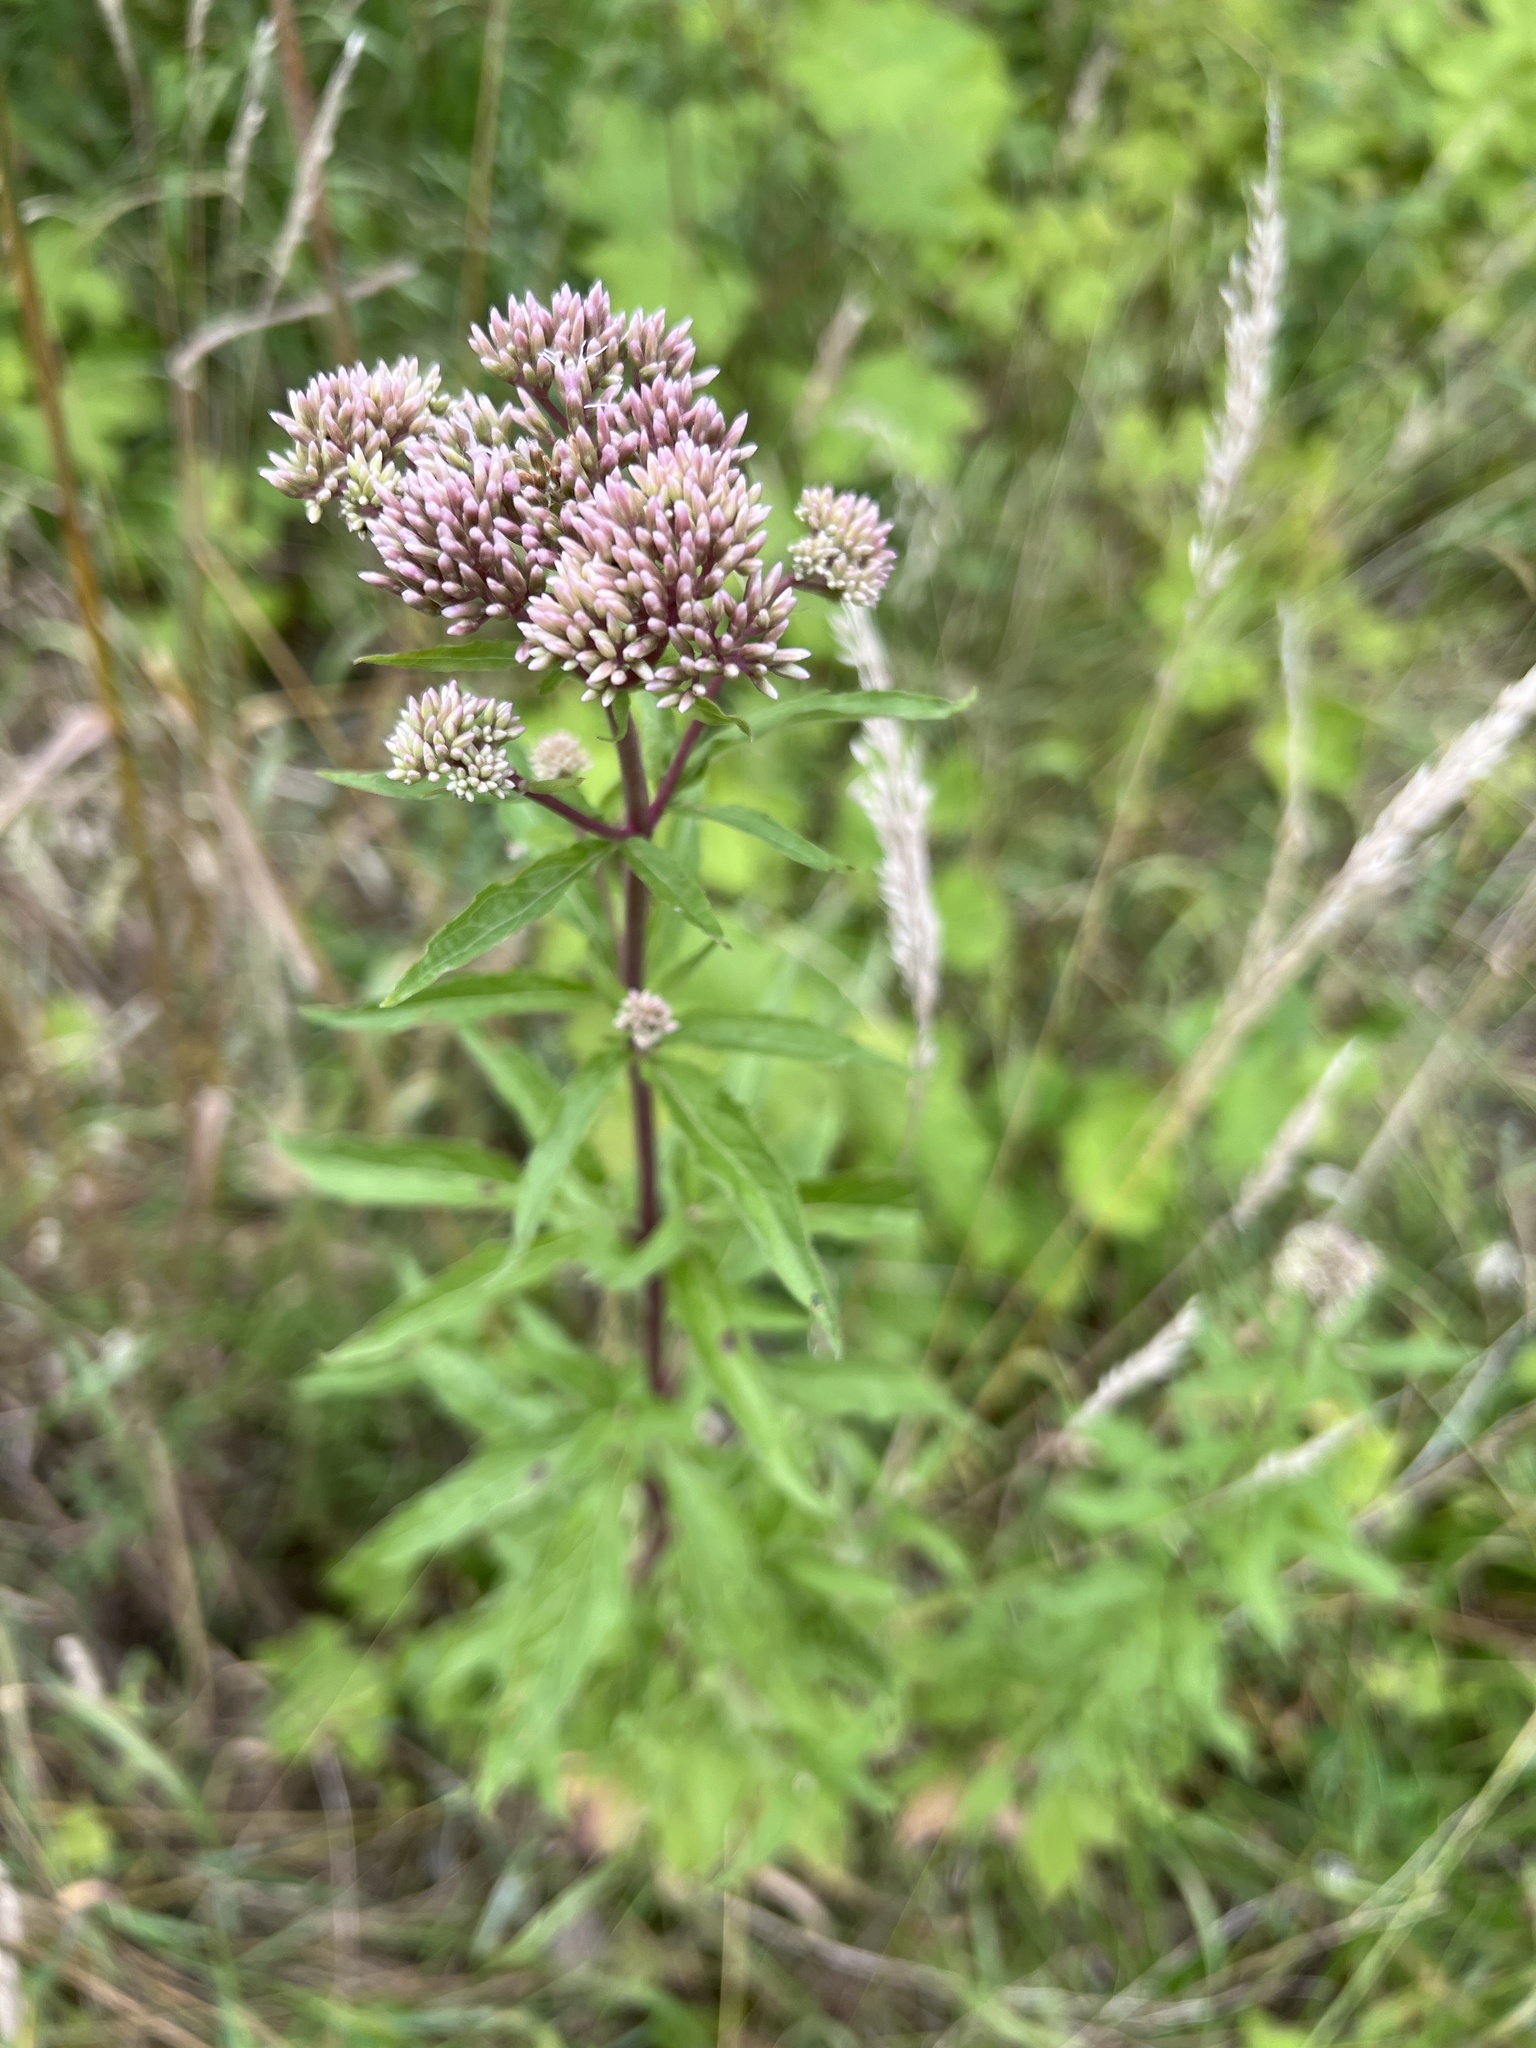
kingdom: Plantae
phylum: Tracheophyta
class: Magnoliopsida
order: Asterales
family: Asteraceae
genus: Eupatorium
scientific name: Eupatorium cannabinum
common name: Hemp-agrimony
